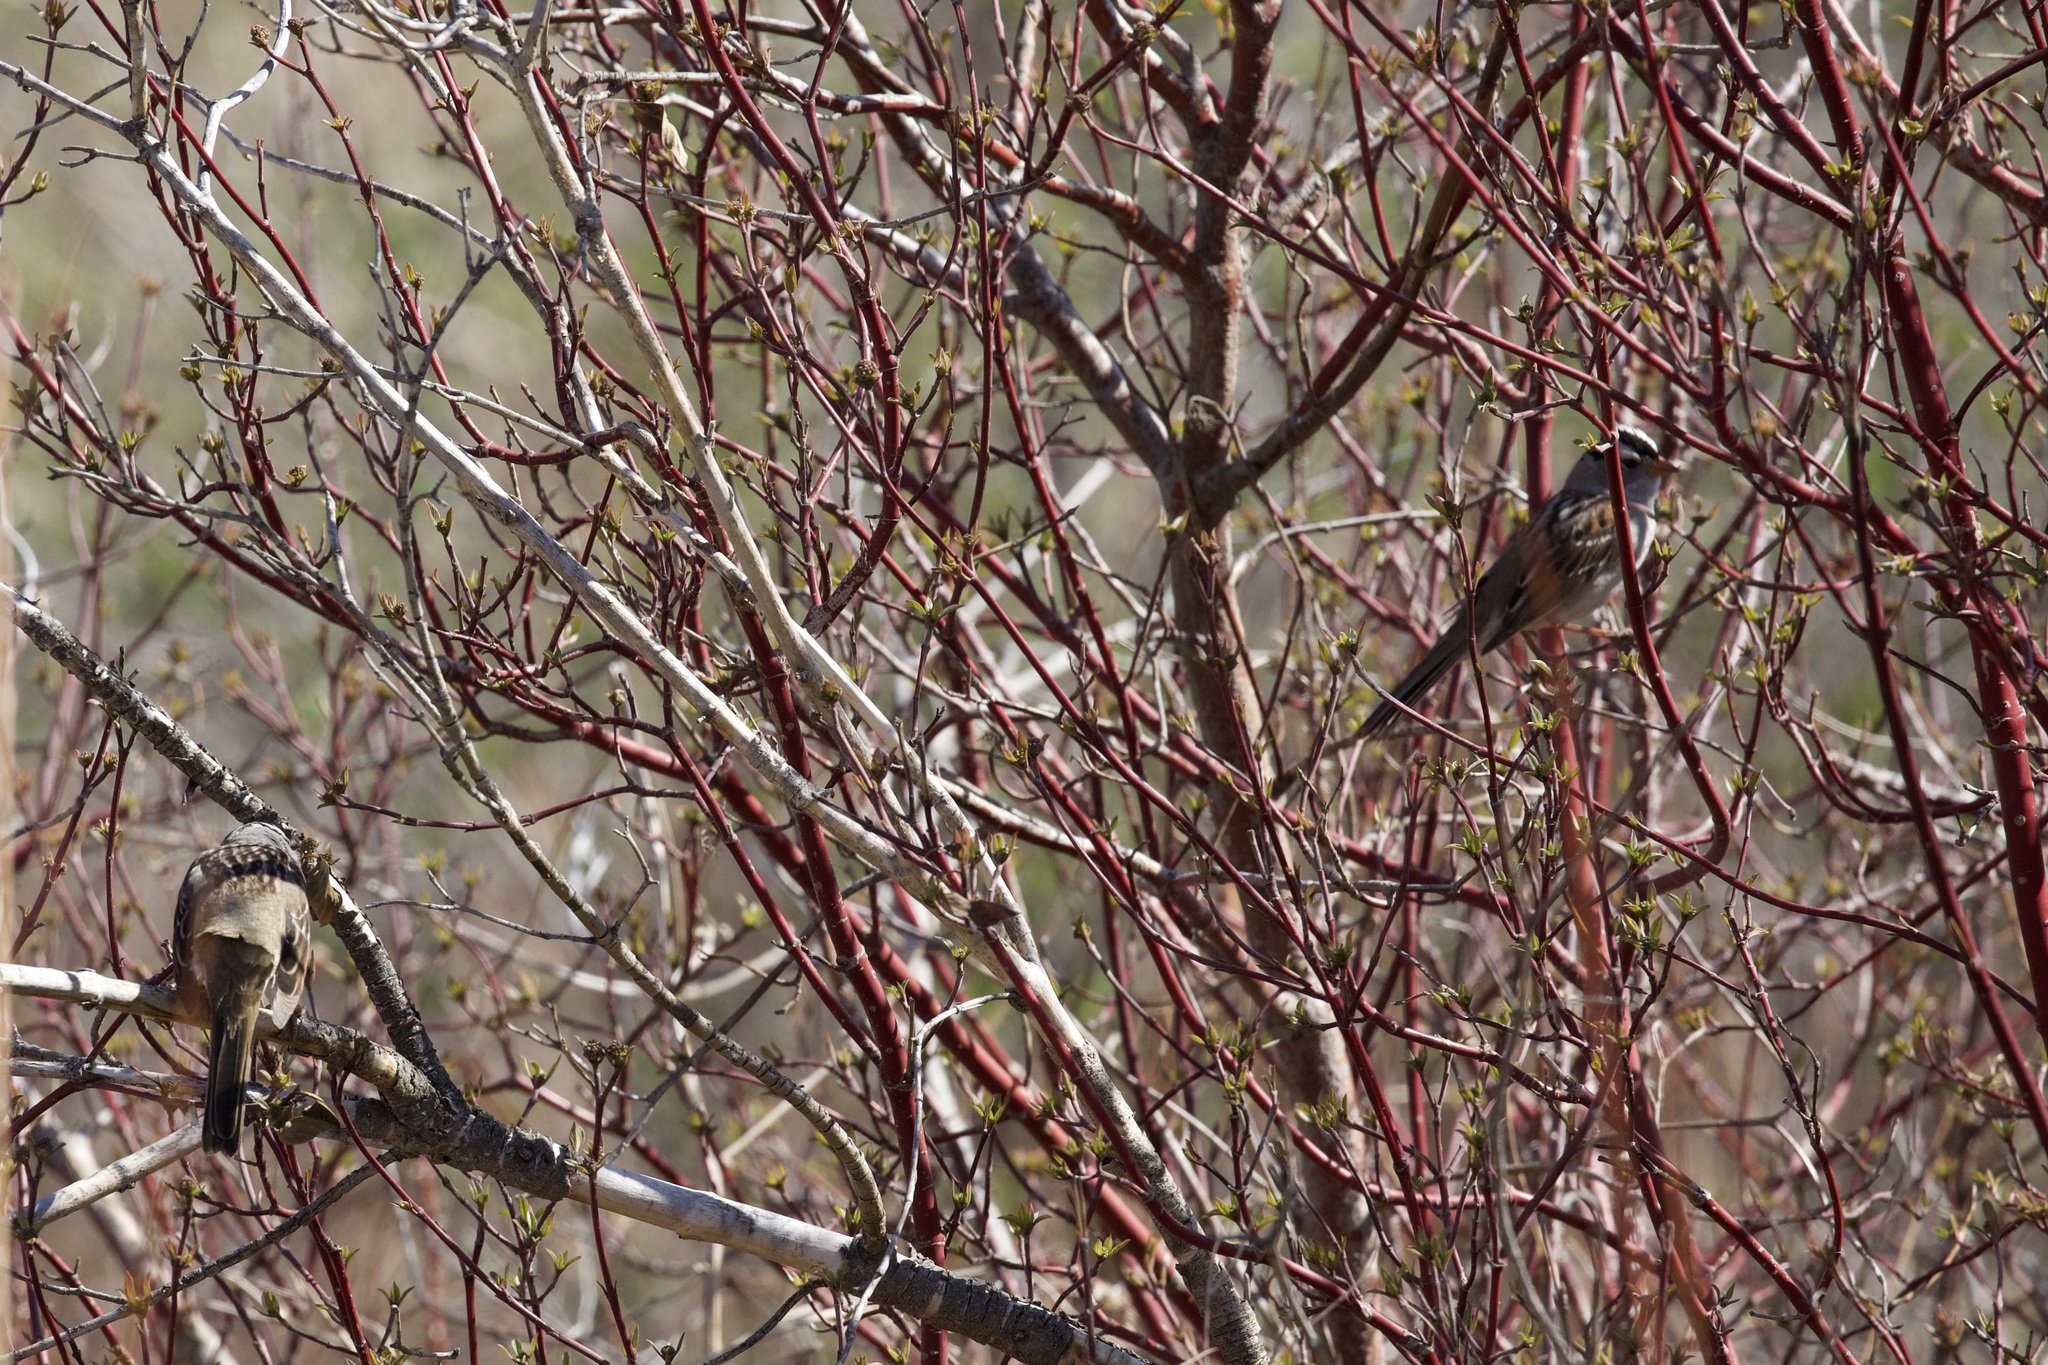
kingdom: Animalia
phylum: Chordata
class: Aves
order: Passeriformes
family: Passerellidae
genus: Zonotrichia
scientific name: Zonotrichia leucophrys
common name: White-crowned sparrow
